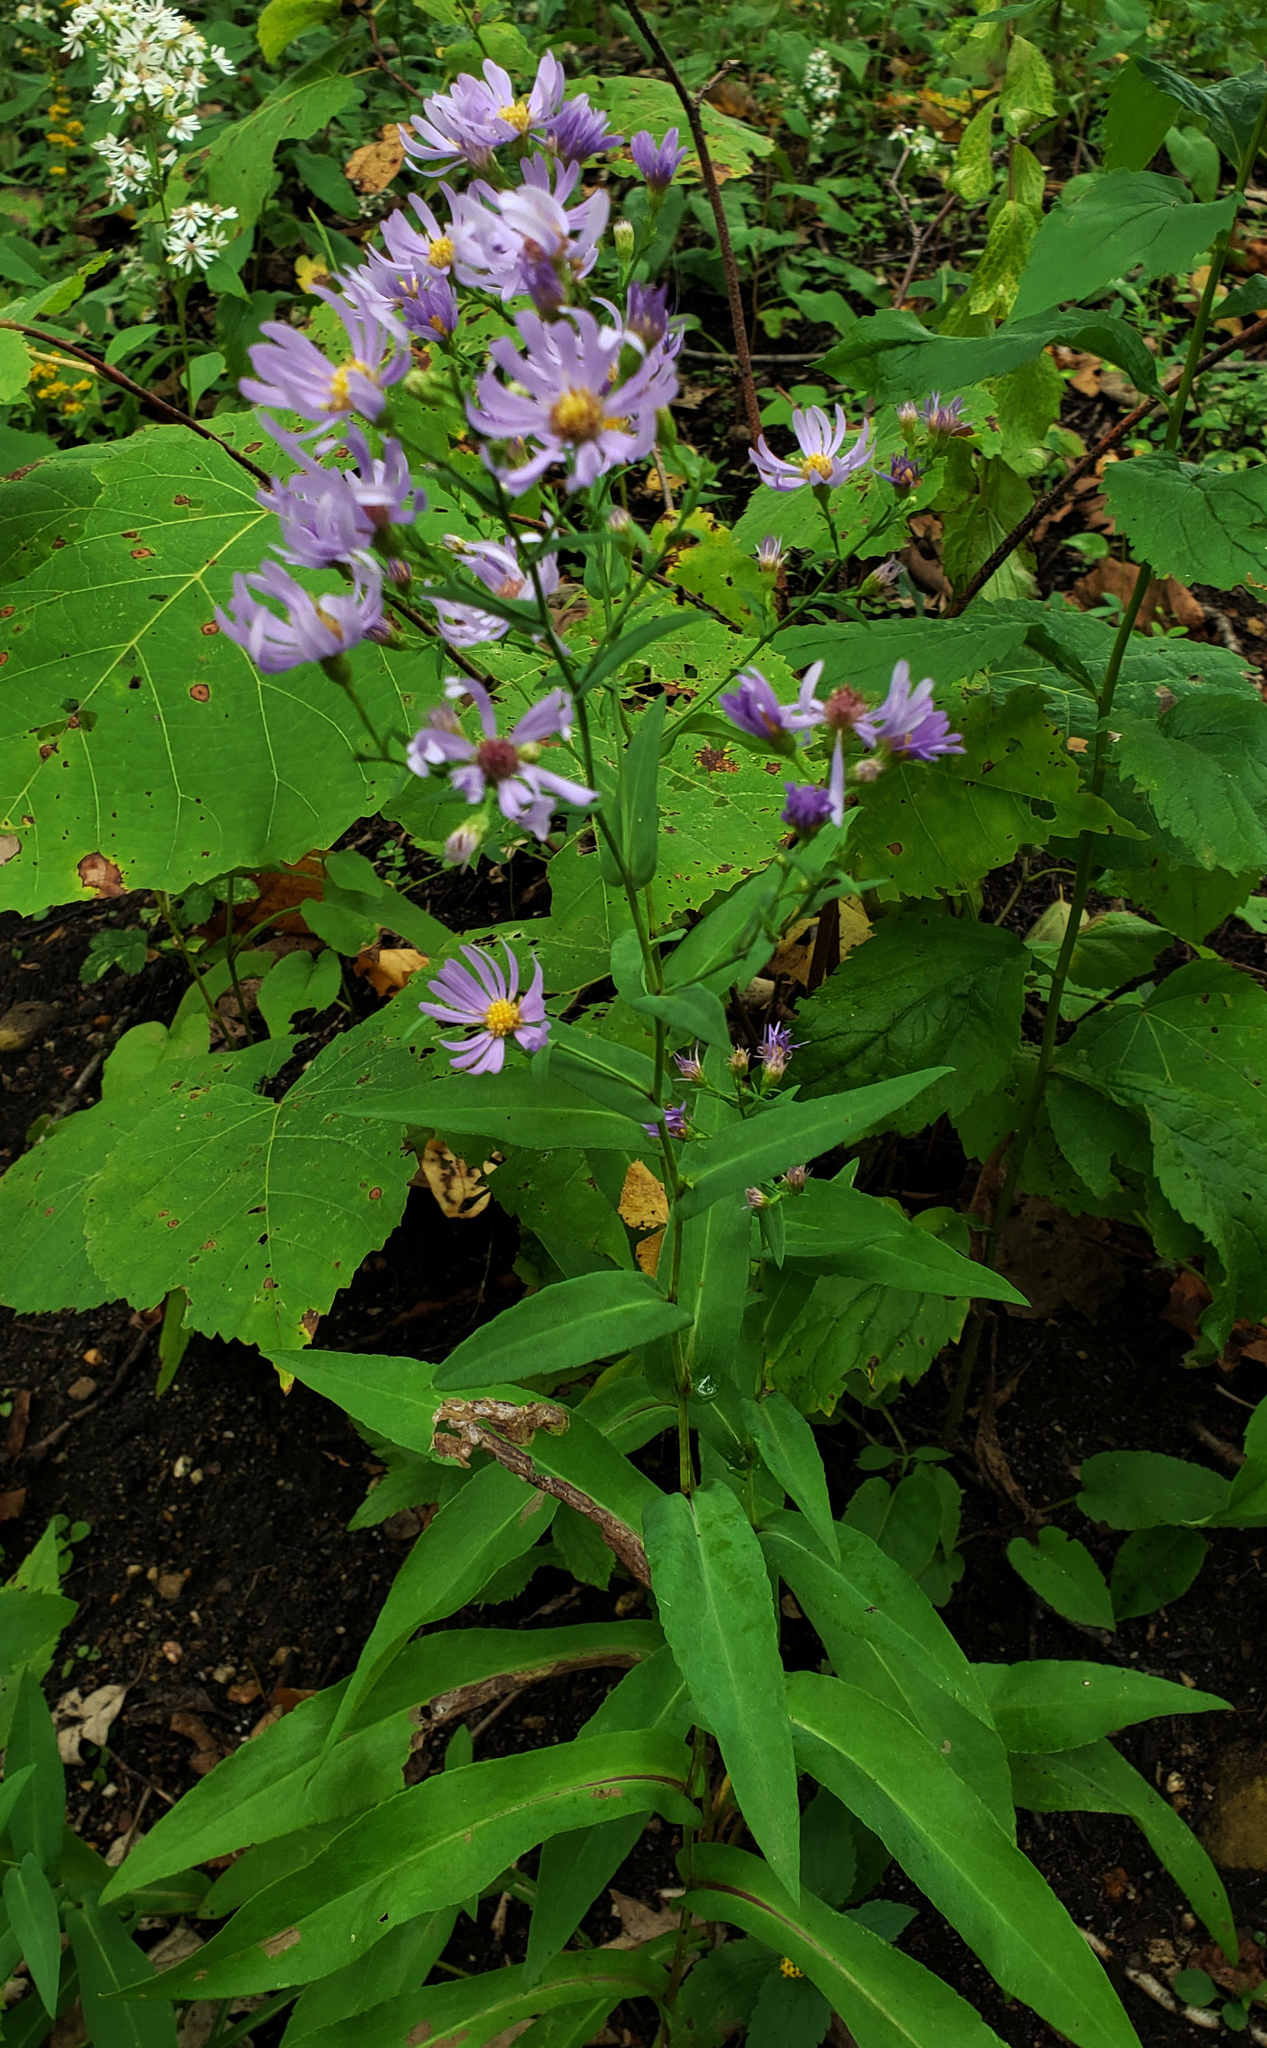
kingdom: Plantae
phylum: Tracheophyta
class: Magnoliopsida
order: Asterales
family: Asteraceae
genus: Symphyotrichum
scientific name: Symphyotrichum laeve
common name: Glaucous aster
